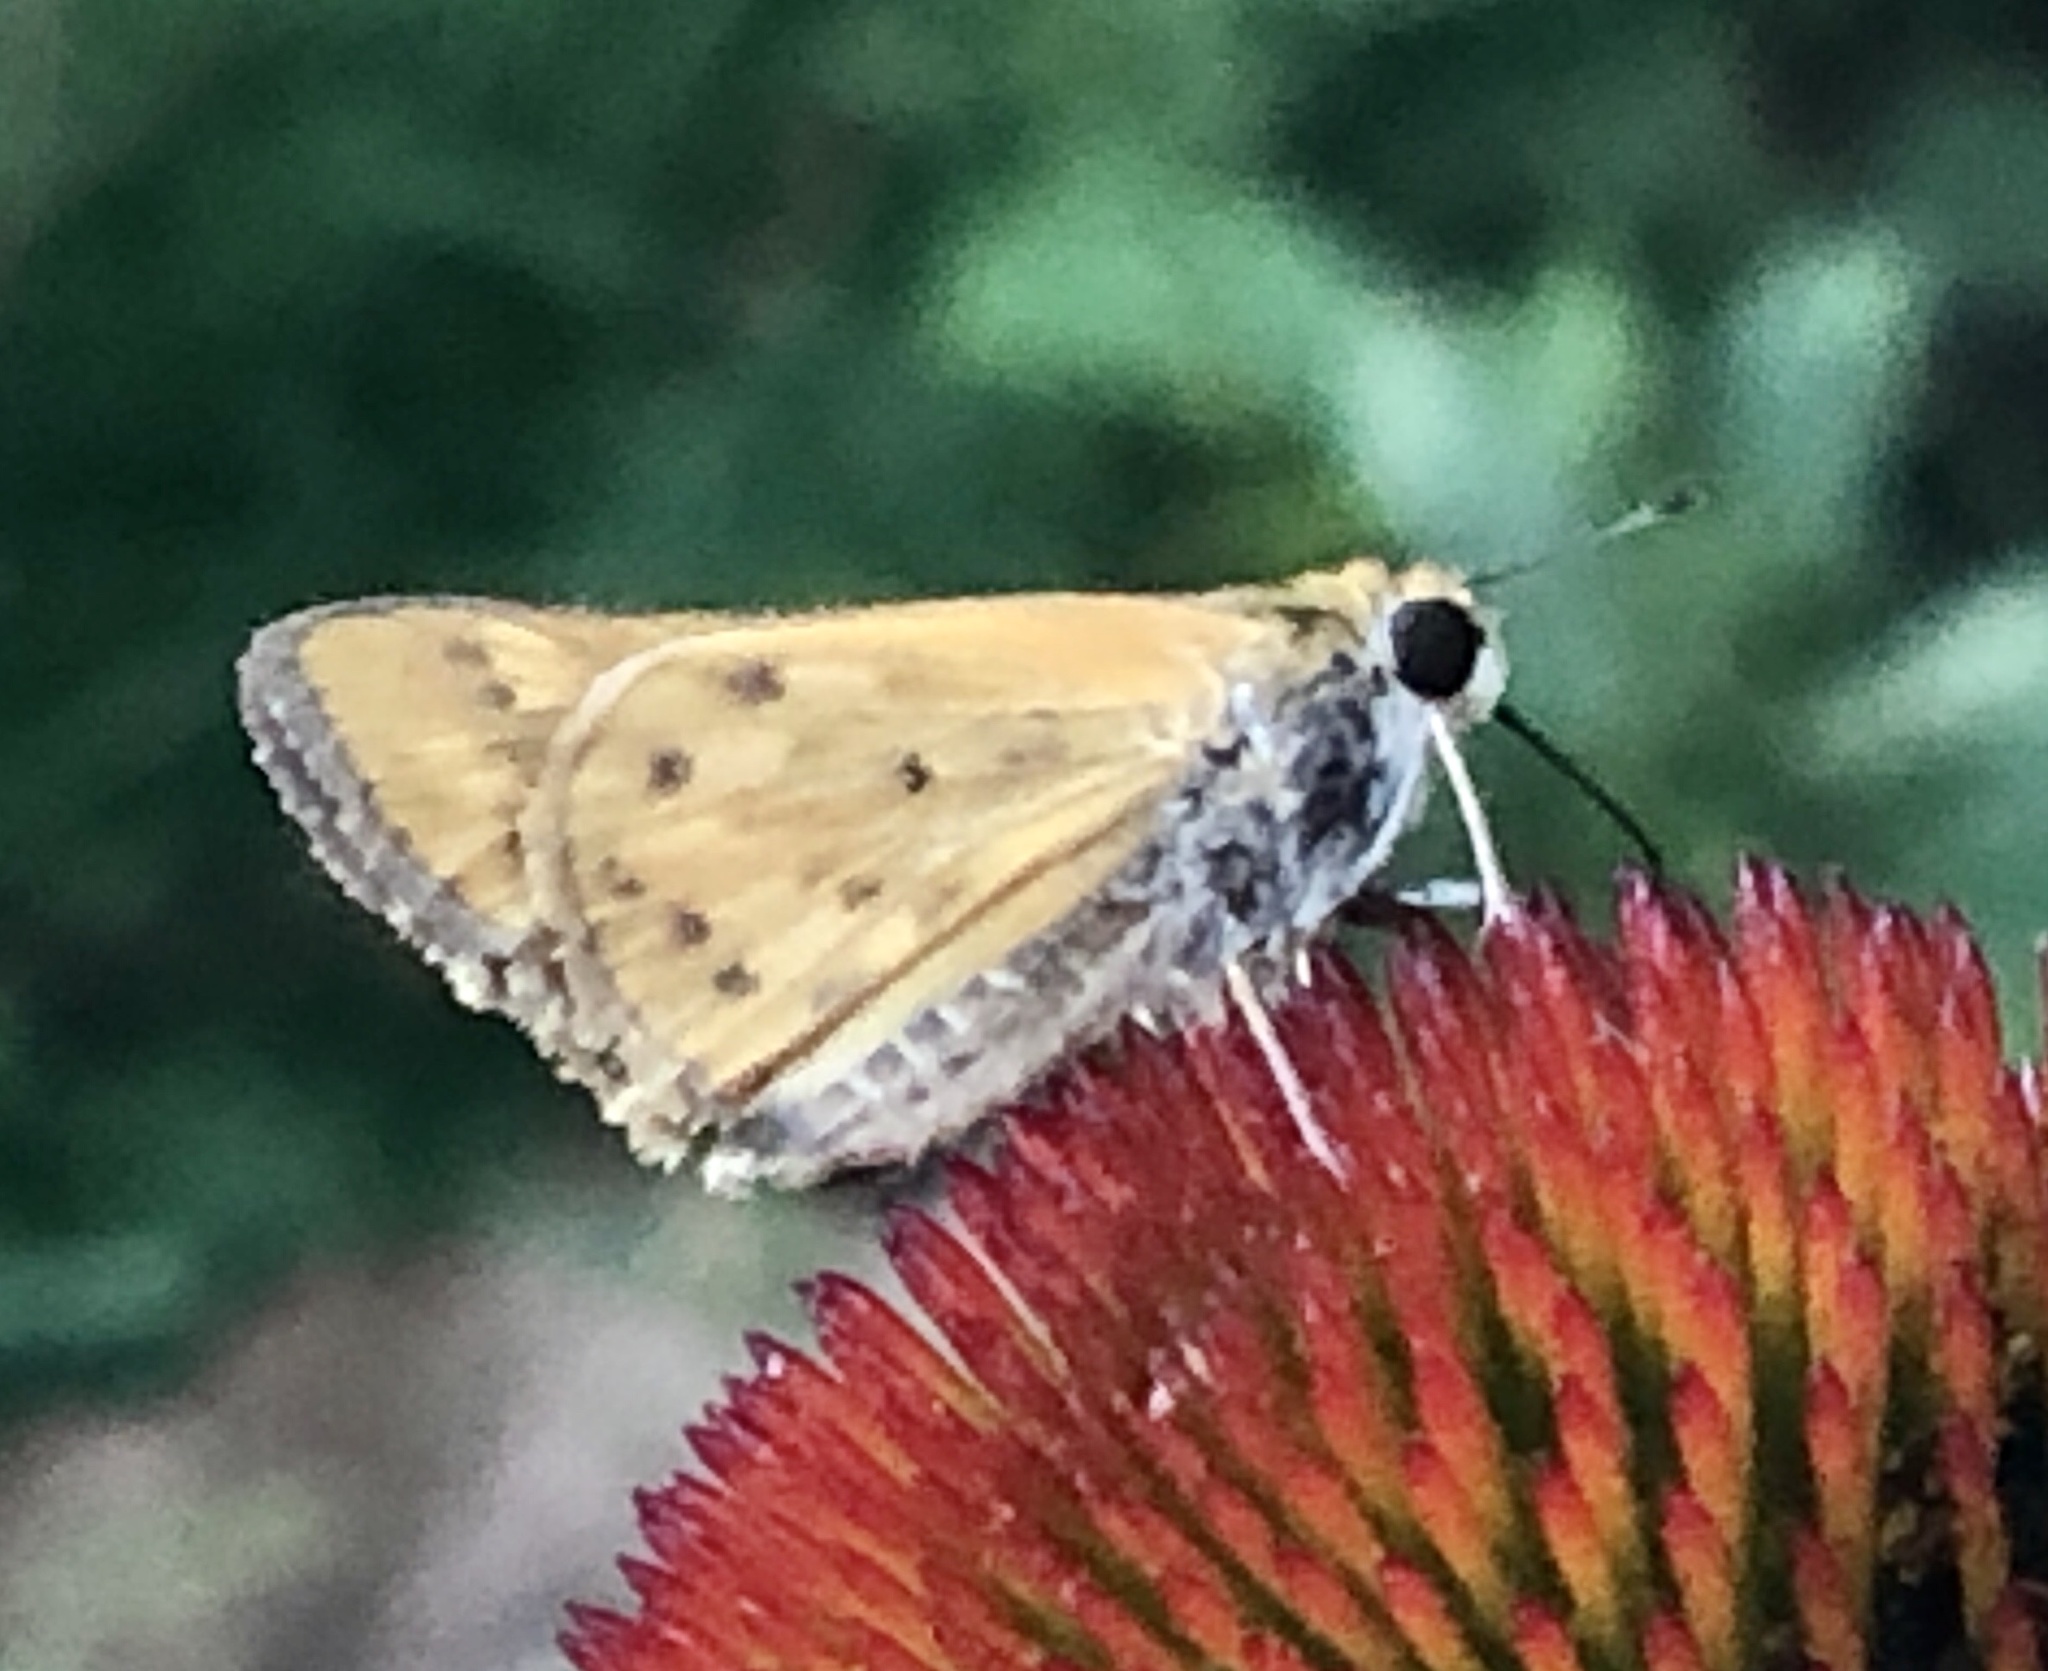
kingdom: Animalia
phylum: Arthropoda
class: Insecta
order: Lepidoptera
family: Hesperiidae
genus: Hylephila
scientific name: Hylephila phyleus
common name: Fiery skipper
